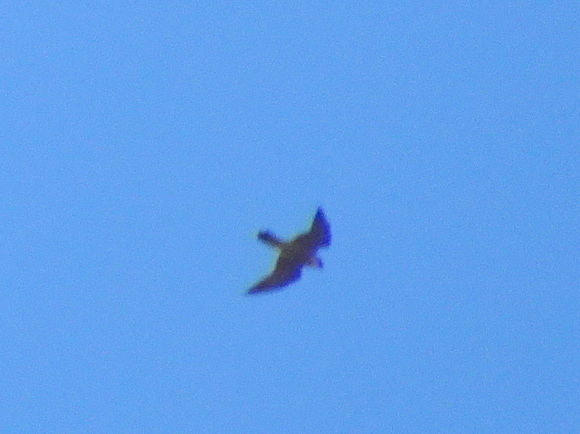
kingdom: Animalia
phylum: Chordata
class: Aves
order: Falconiformes
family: Falconidae
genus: Falco
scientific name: Falco peregrinus
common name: Peregrine falcon
